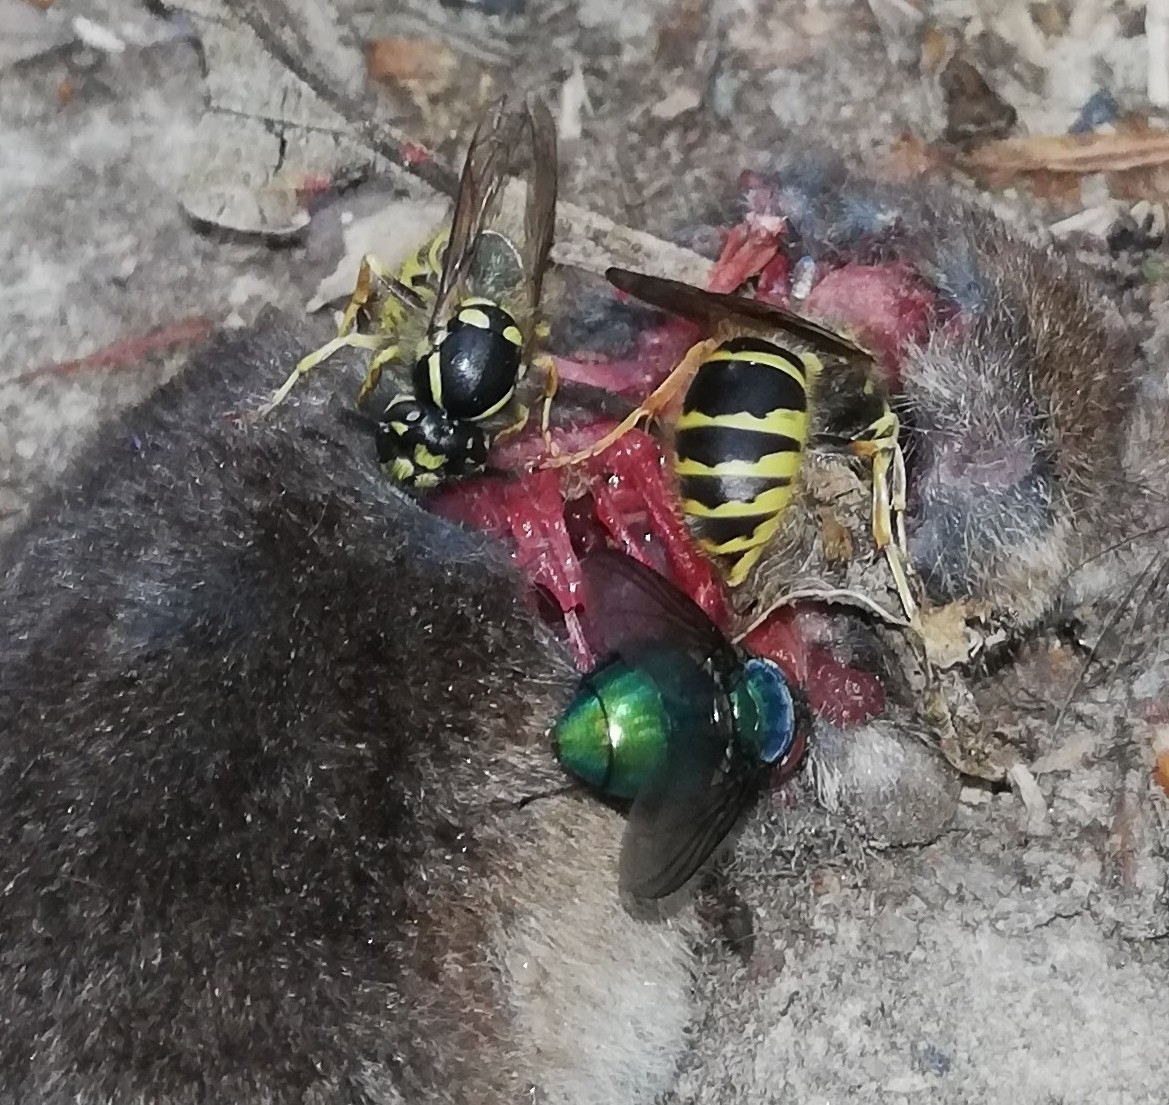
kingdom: Animalia
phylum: Arthropoda
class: Insecta
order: Hymenoptera
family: Vespidae
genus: Vespula
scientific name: Vespula vulgaris
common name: Common wasp
